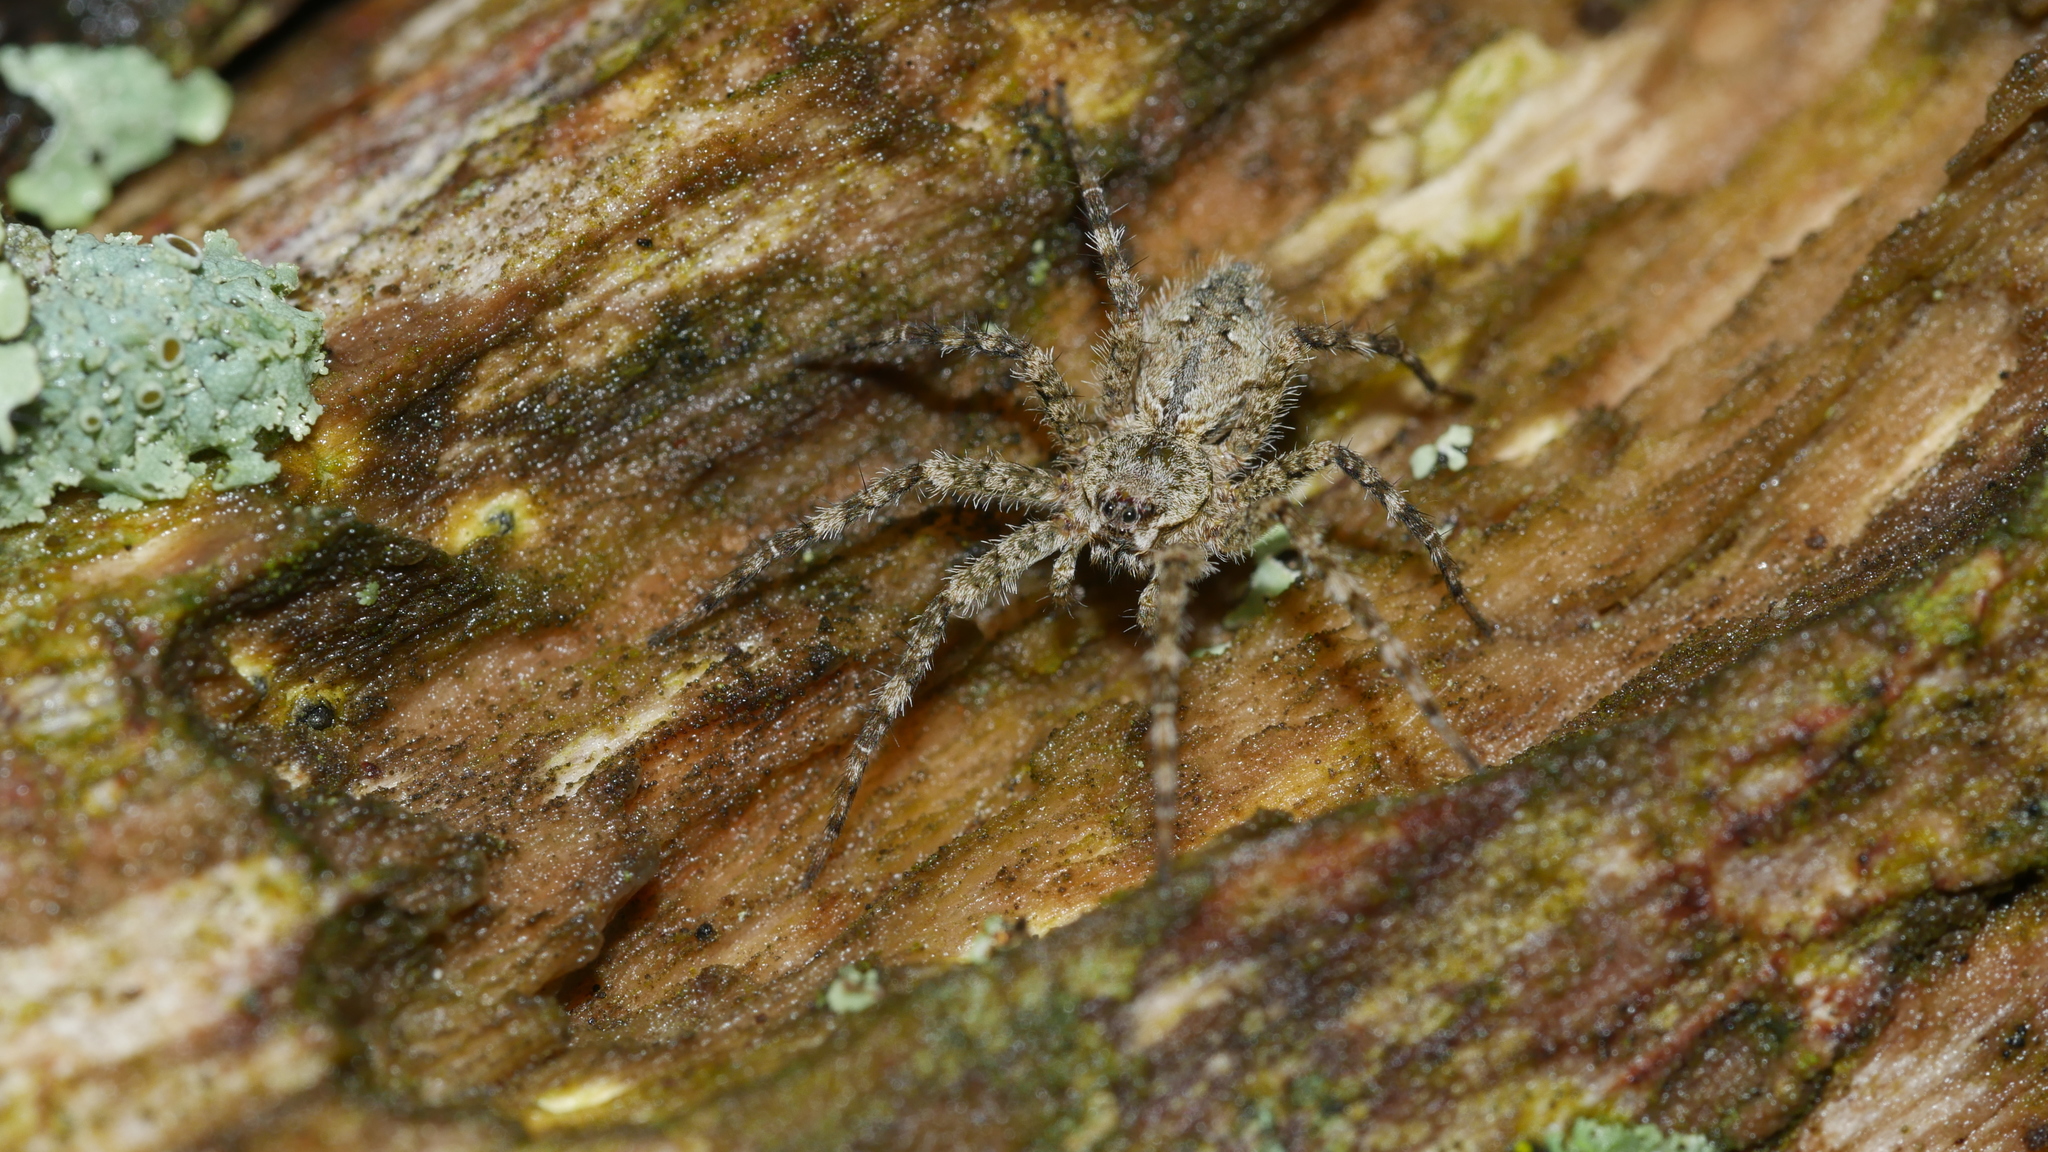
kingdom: Animalia
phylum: Arthropoda
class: Arachnida
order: Araneae
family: Pisauridae
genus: Dolomedes
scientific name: Dolomedes albineus
